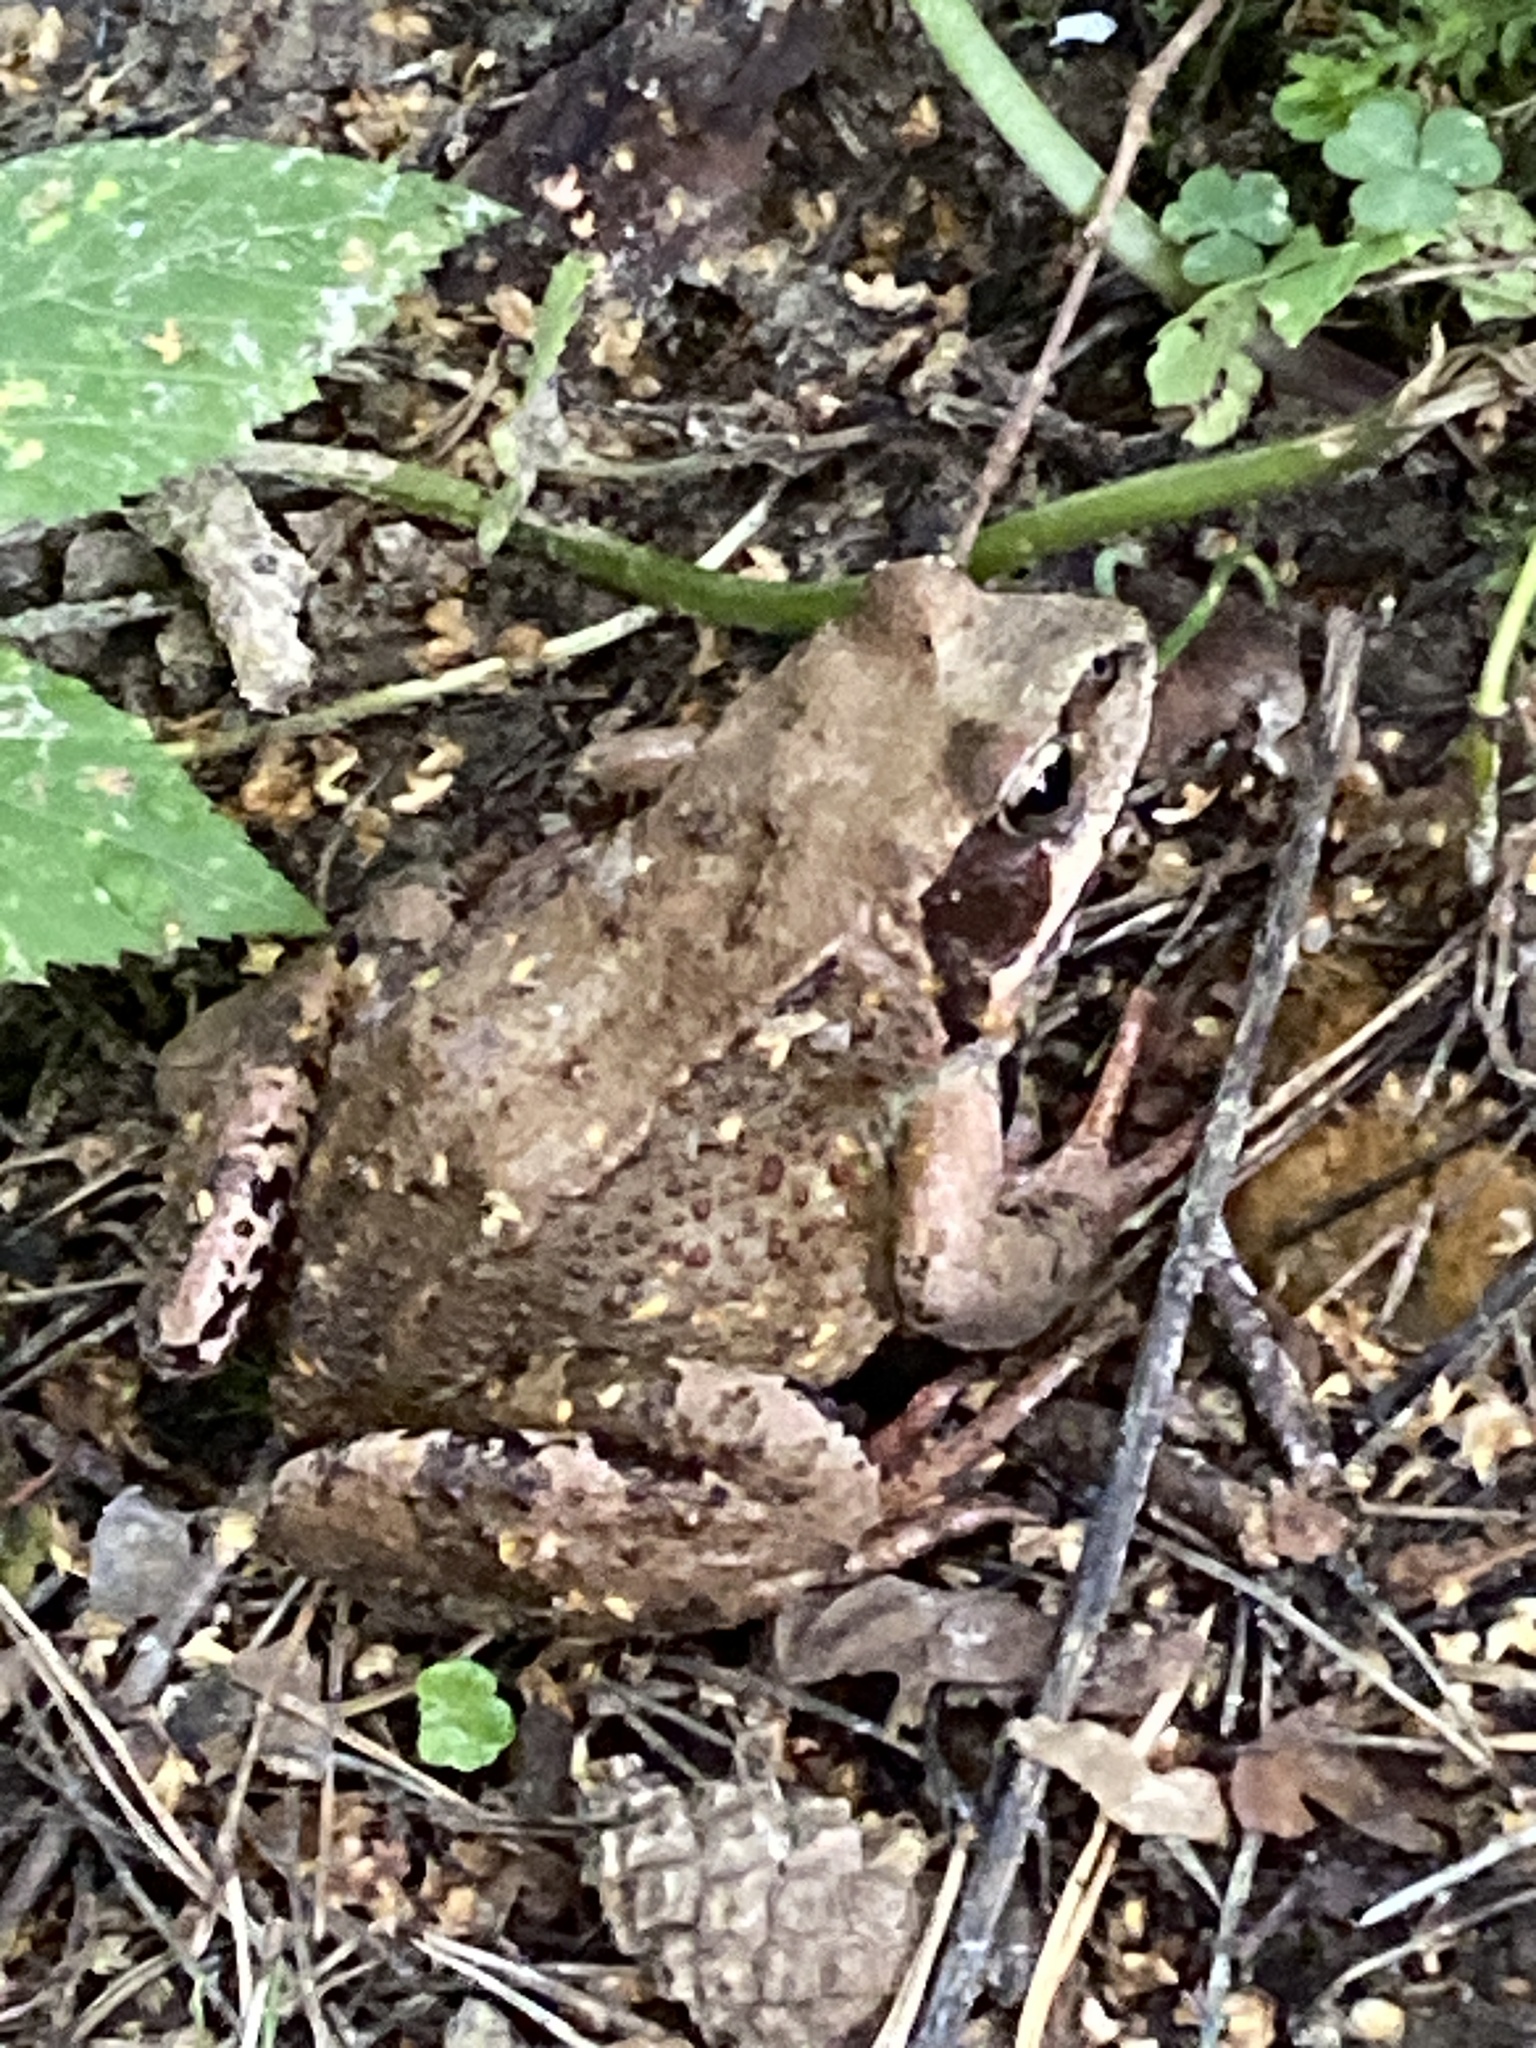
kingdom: Animalia
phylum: Chordata
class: Amphibia
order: Anura
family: Ranidae
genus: Rana
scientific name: Rana temporaria
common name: Common frog
